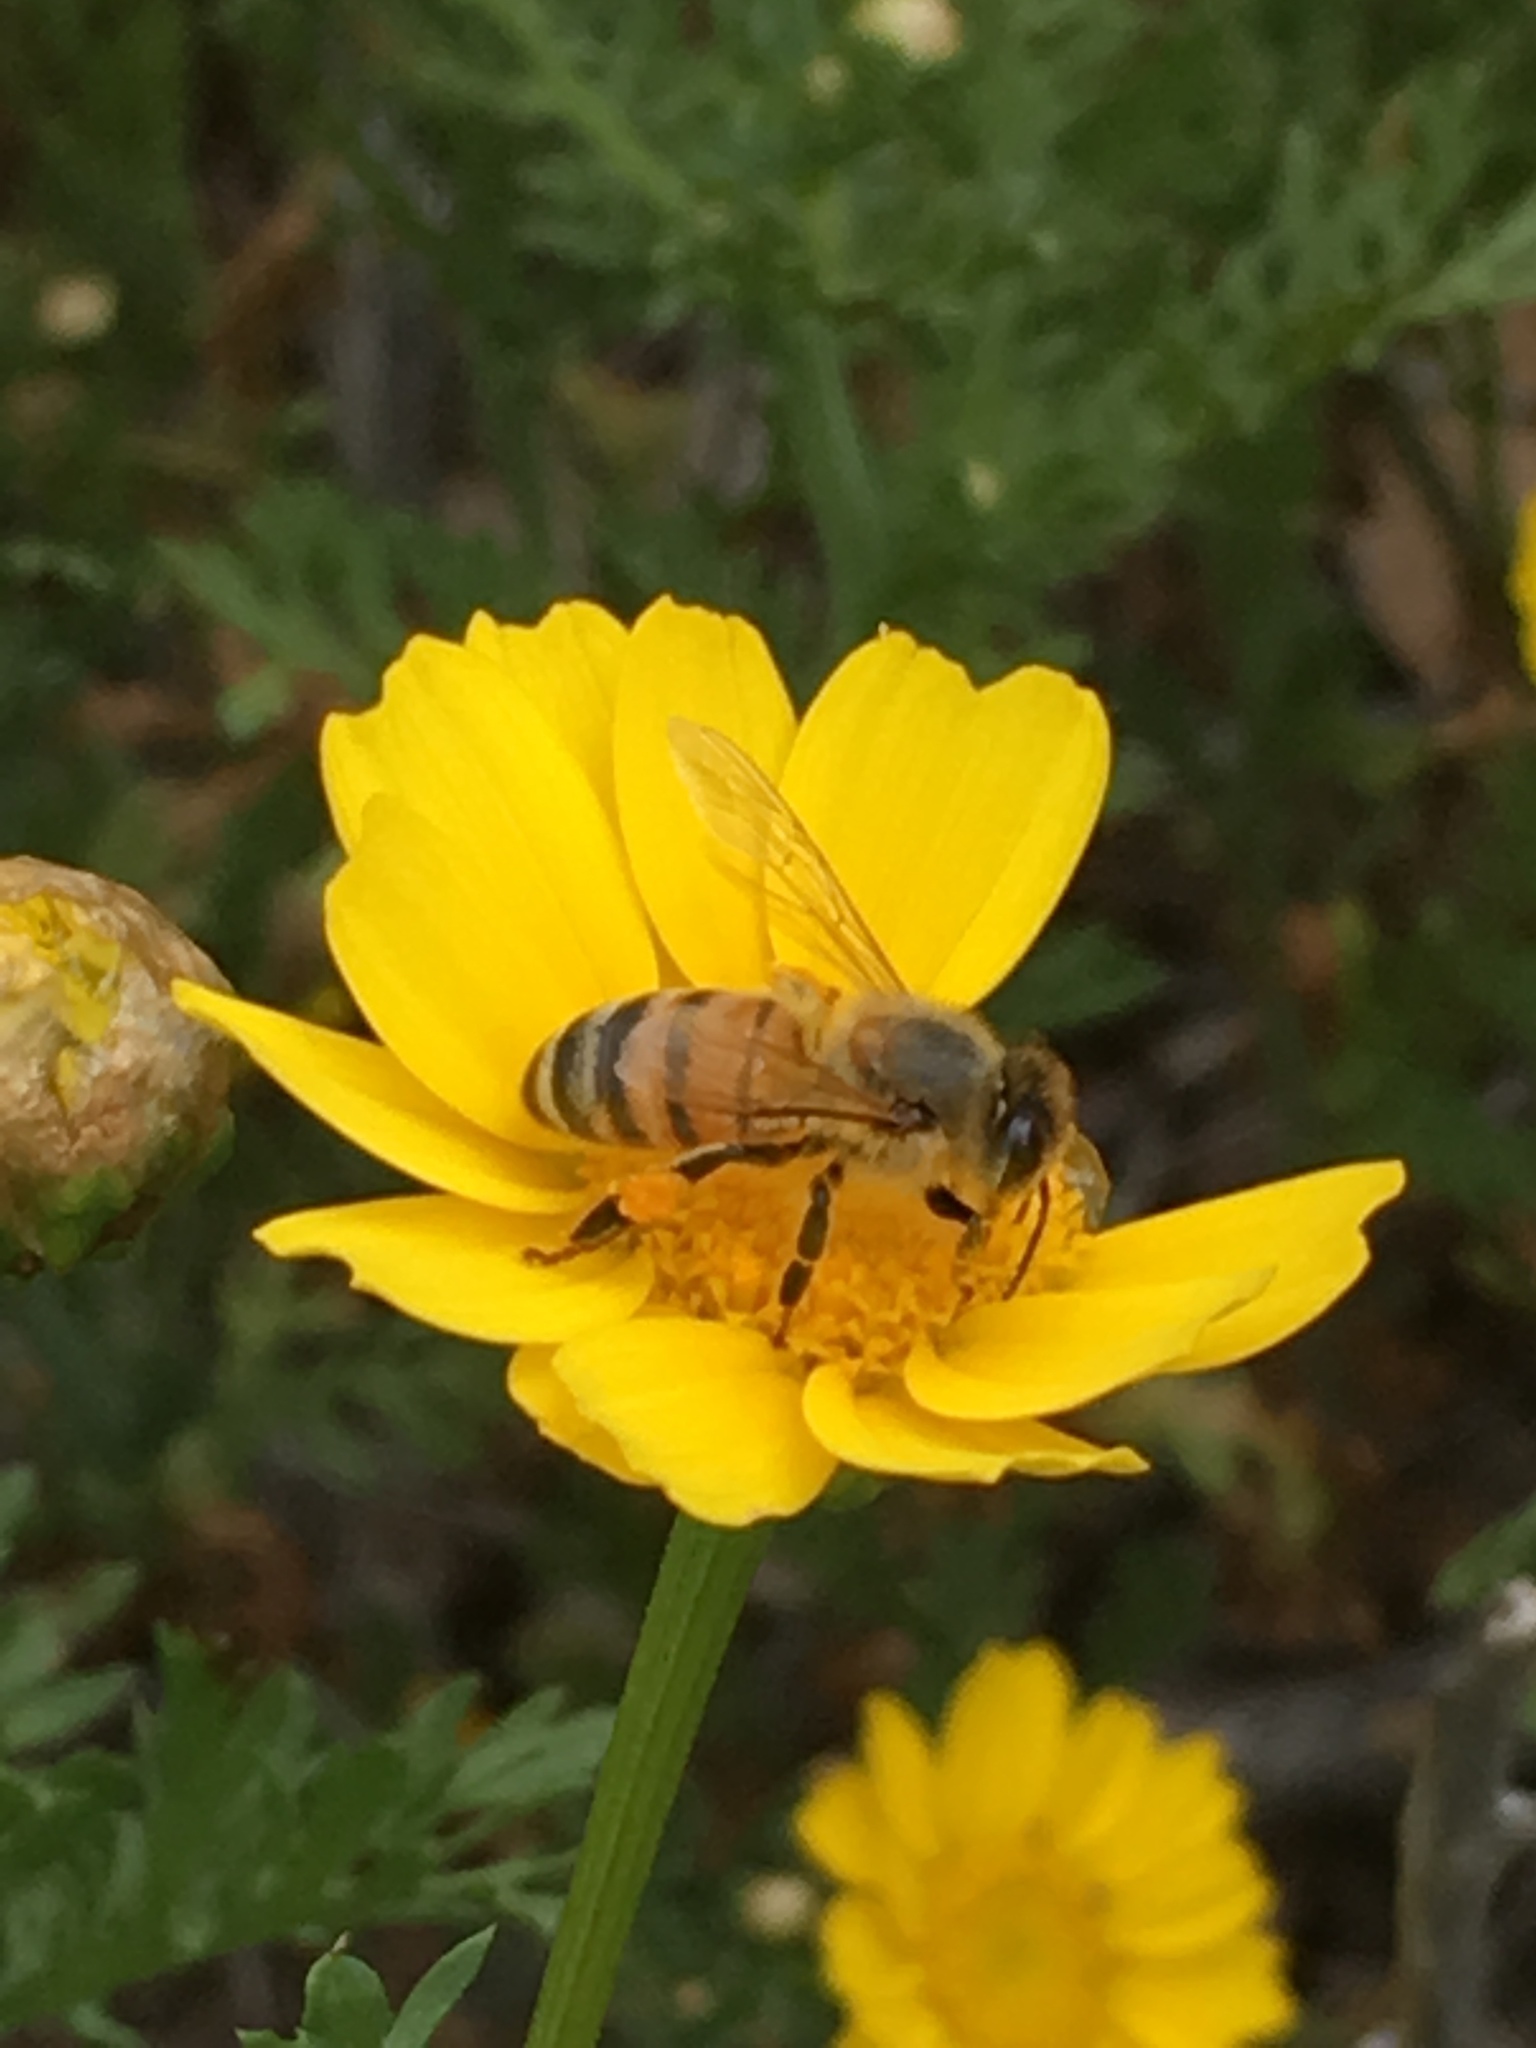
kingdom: Animalia
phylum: Arthropoda
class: Insecta
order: Hymenoptera
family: Apidae
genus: Apis
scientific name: Apis mellifera
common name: Honey bee
